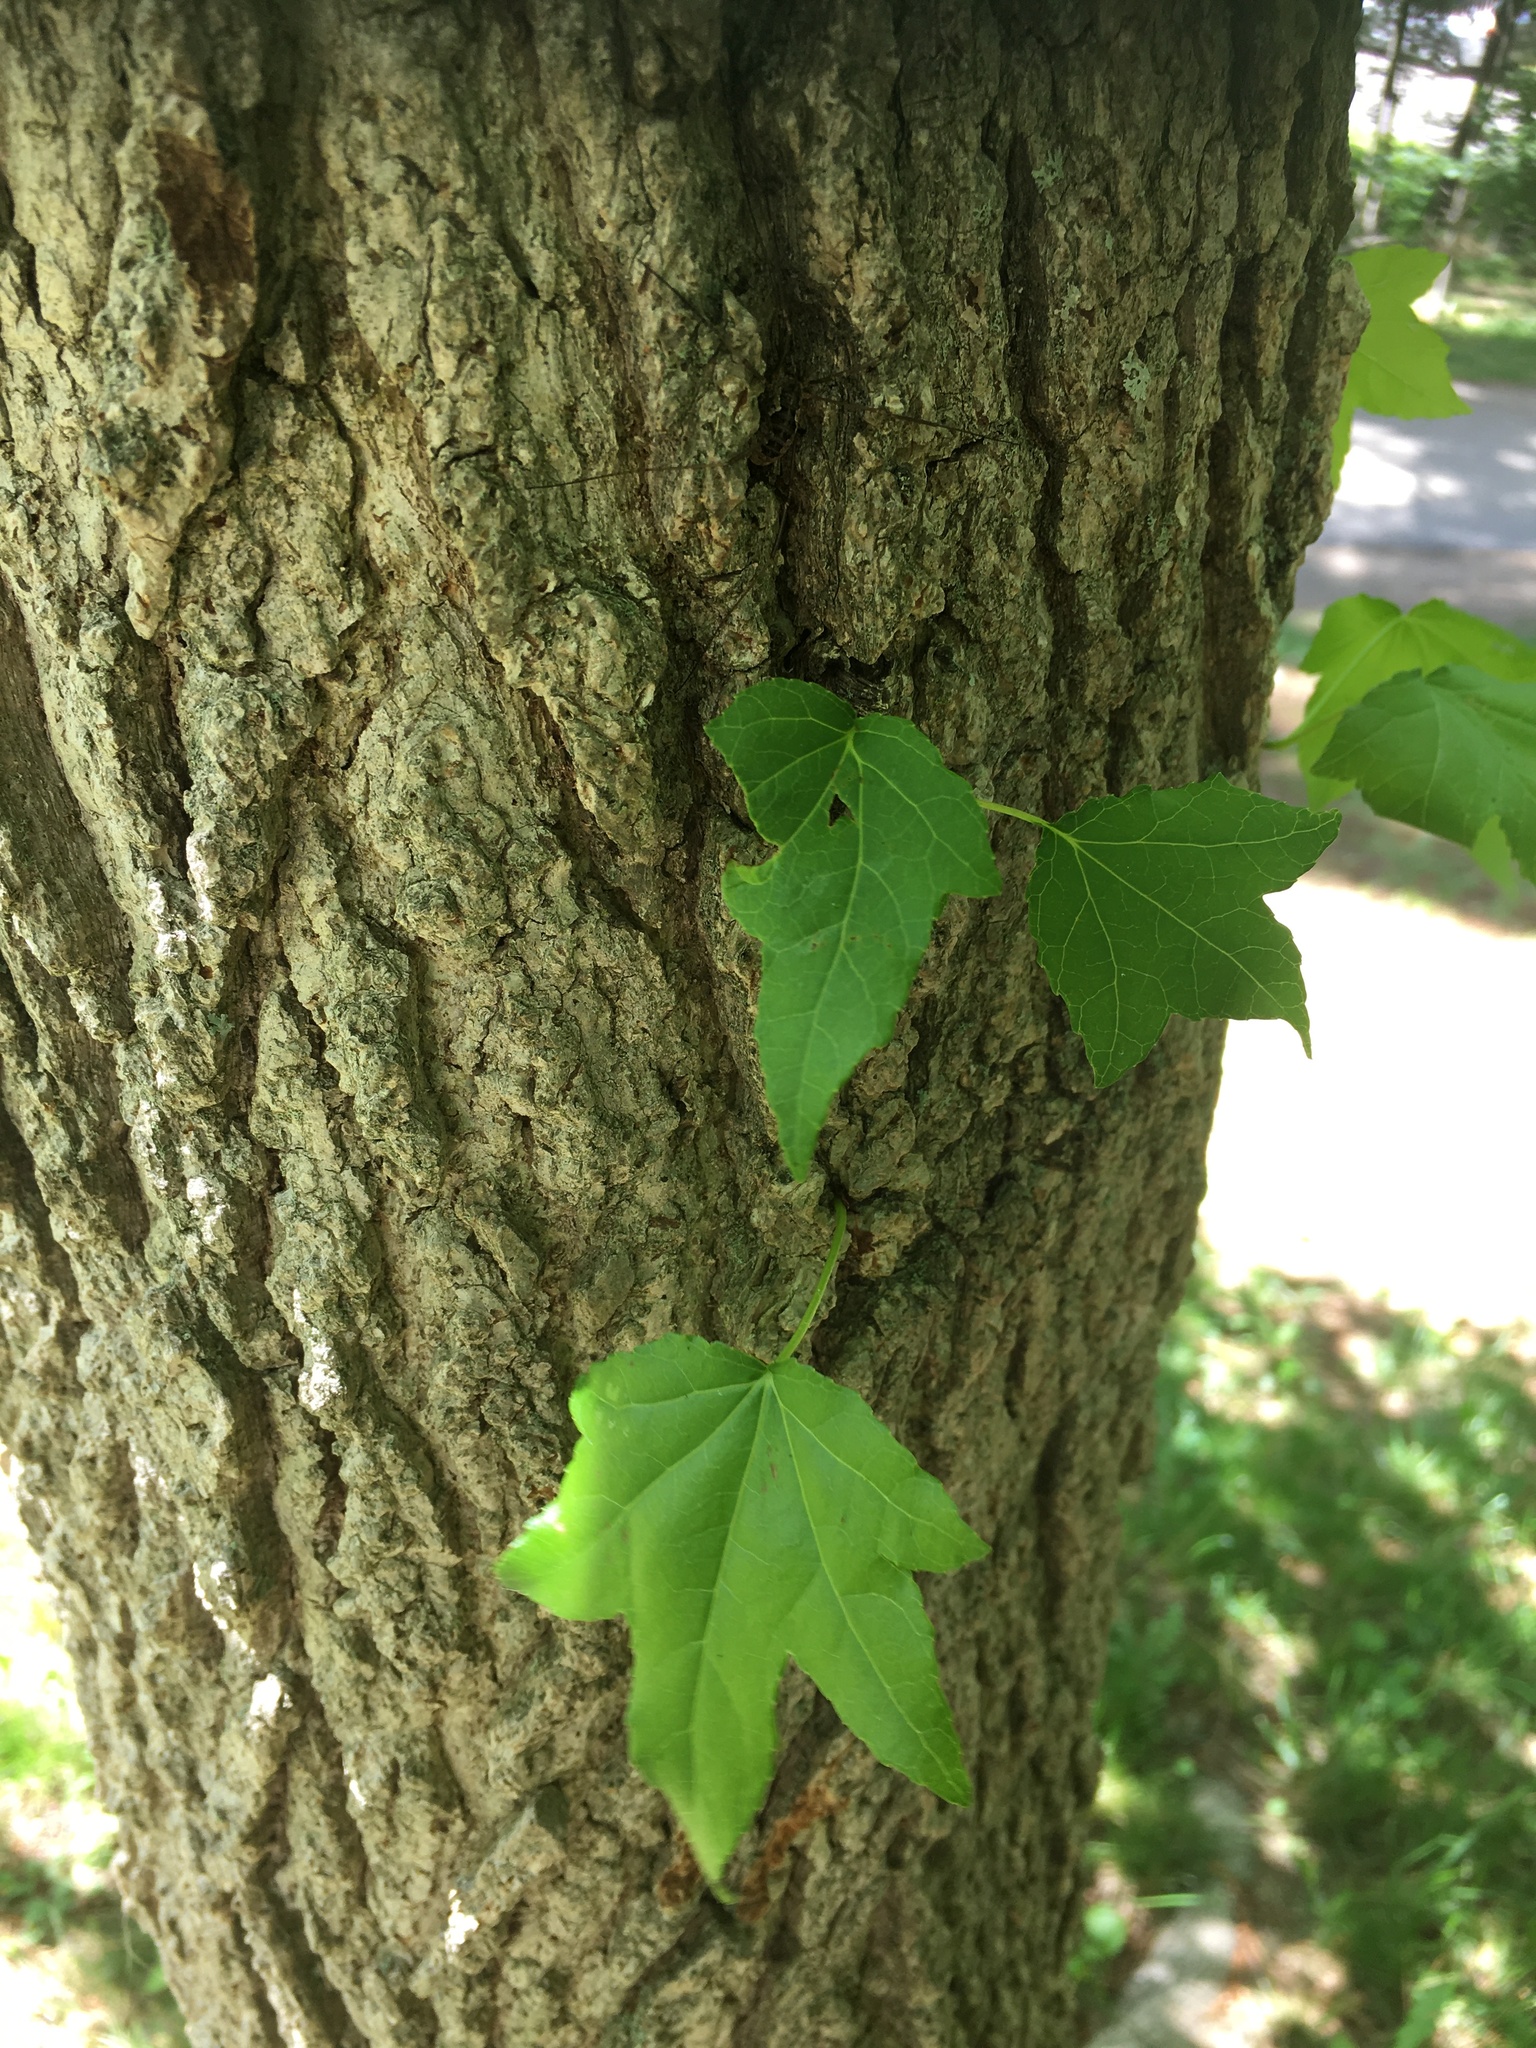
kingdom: Plantae
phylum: Tracheophyta
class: Magnoliopsida
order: Saxifragales
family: Altingiaceae
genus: Liquidambar
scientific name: Liquidambar styraciflua
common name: Sweet gum
